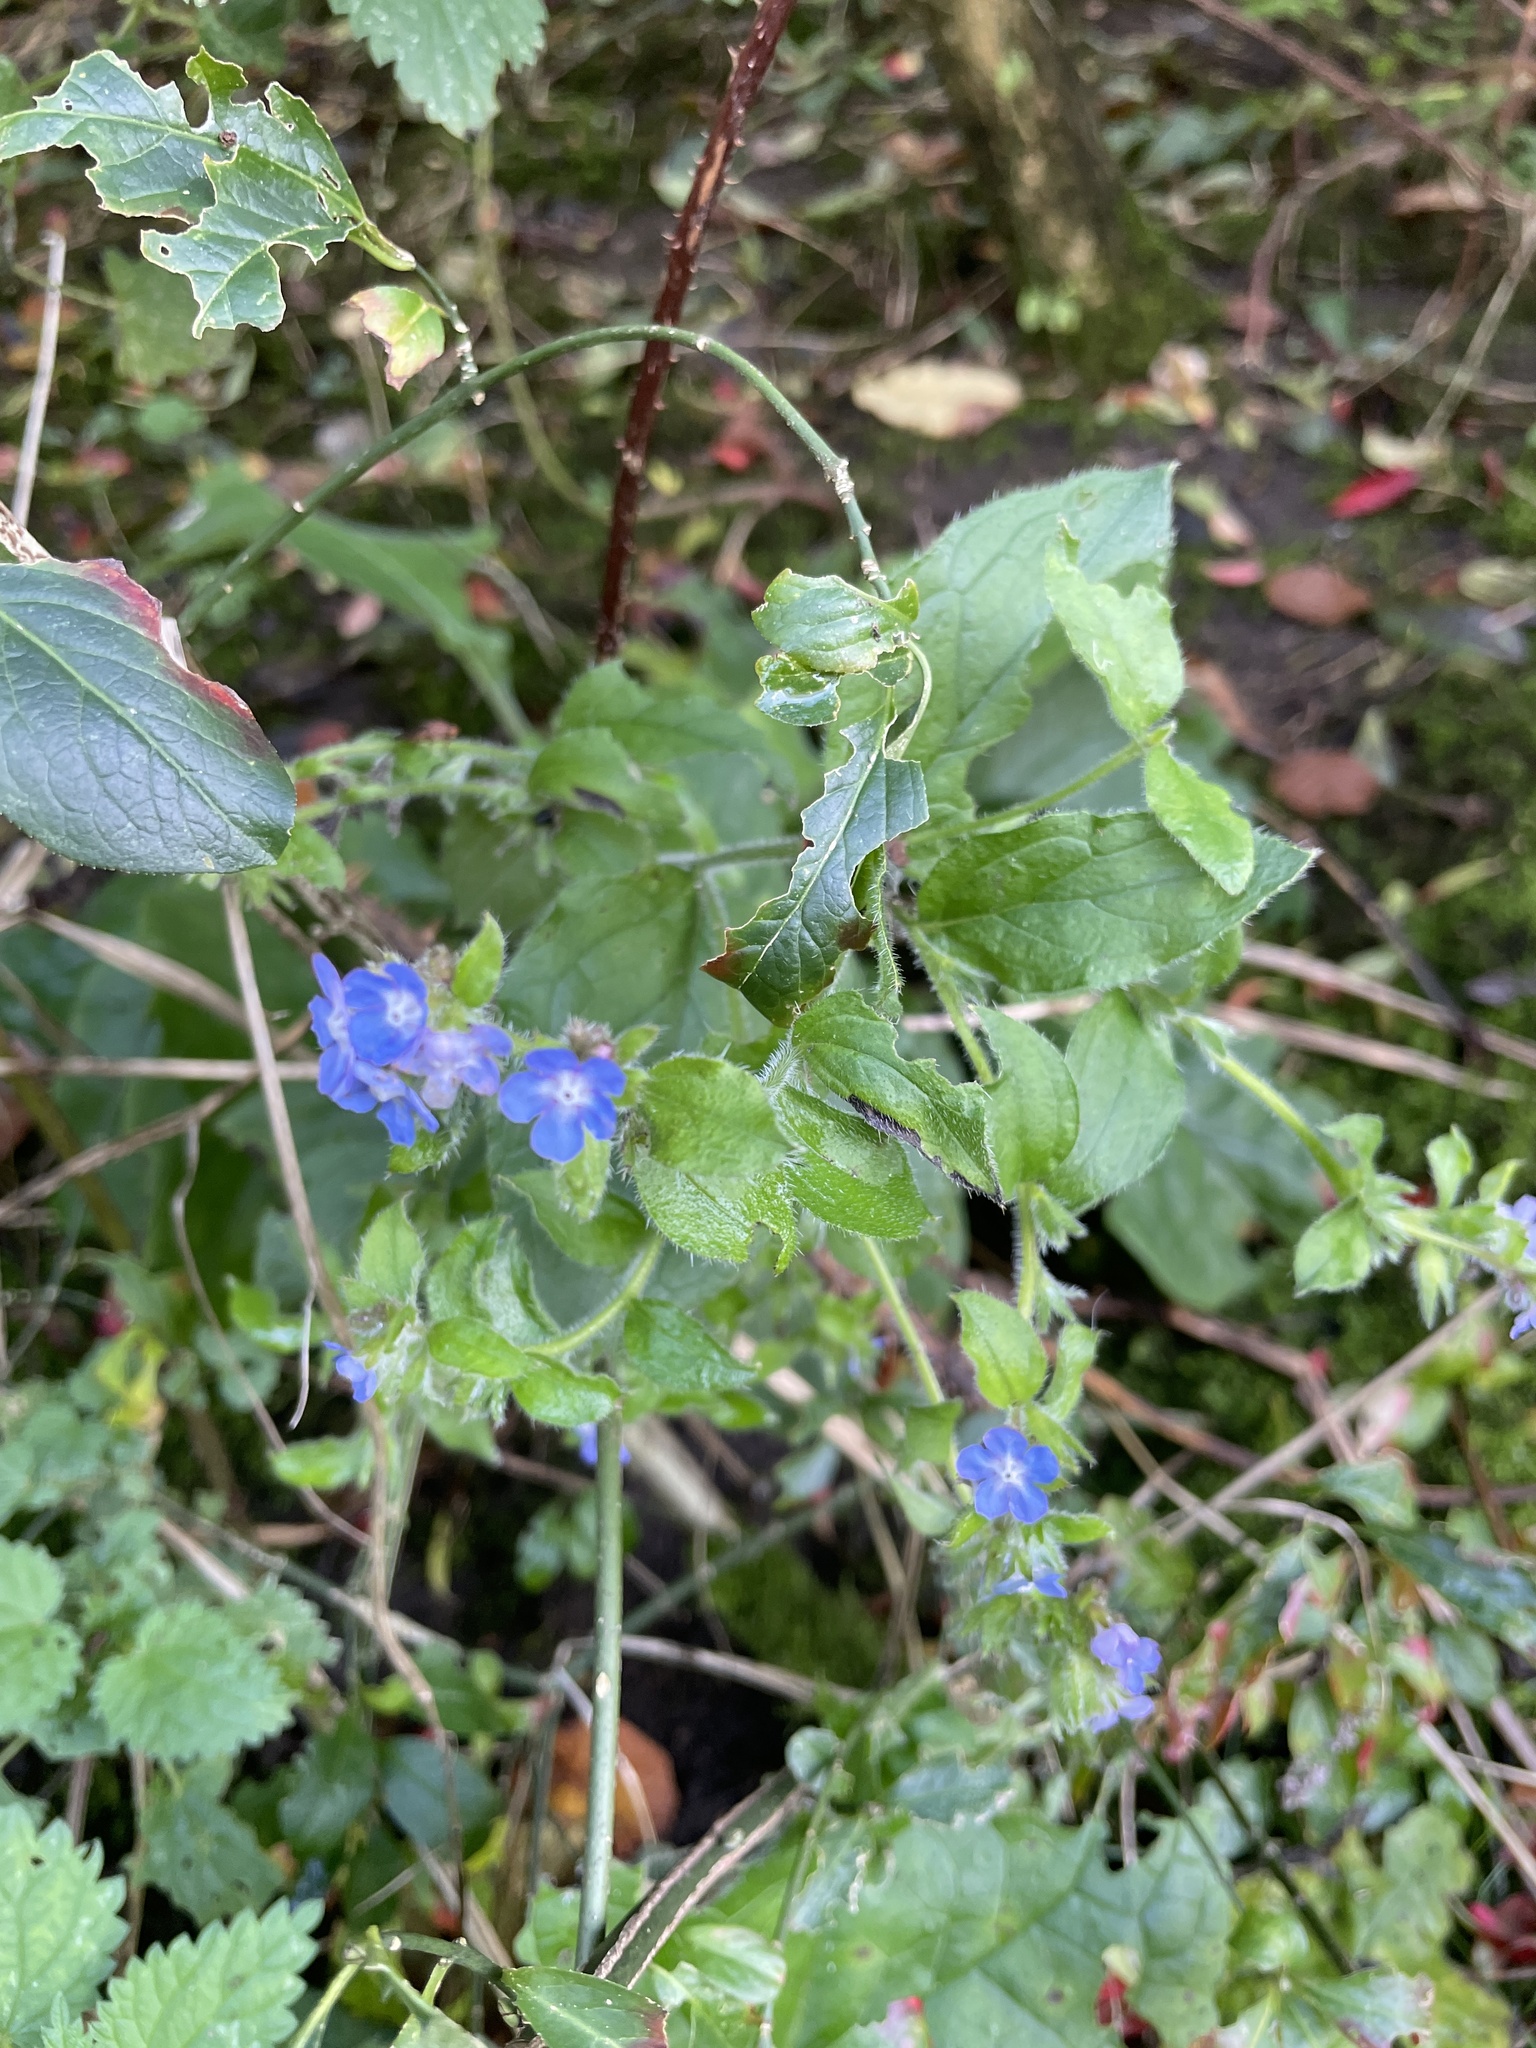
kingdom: Plantae
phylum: Tracheophyta
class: Magnoliopsida
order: Boraginales
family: Boraginaceae
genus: Pentaglottis
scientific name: Pentaglottis sempervirens
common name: Green alkanet
